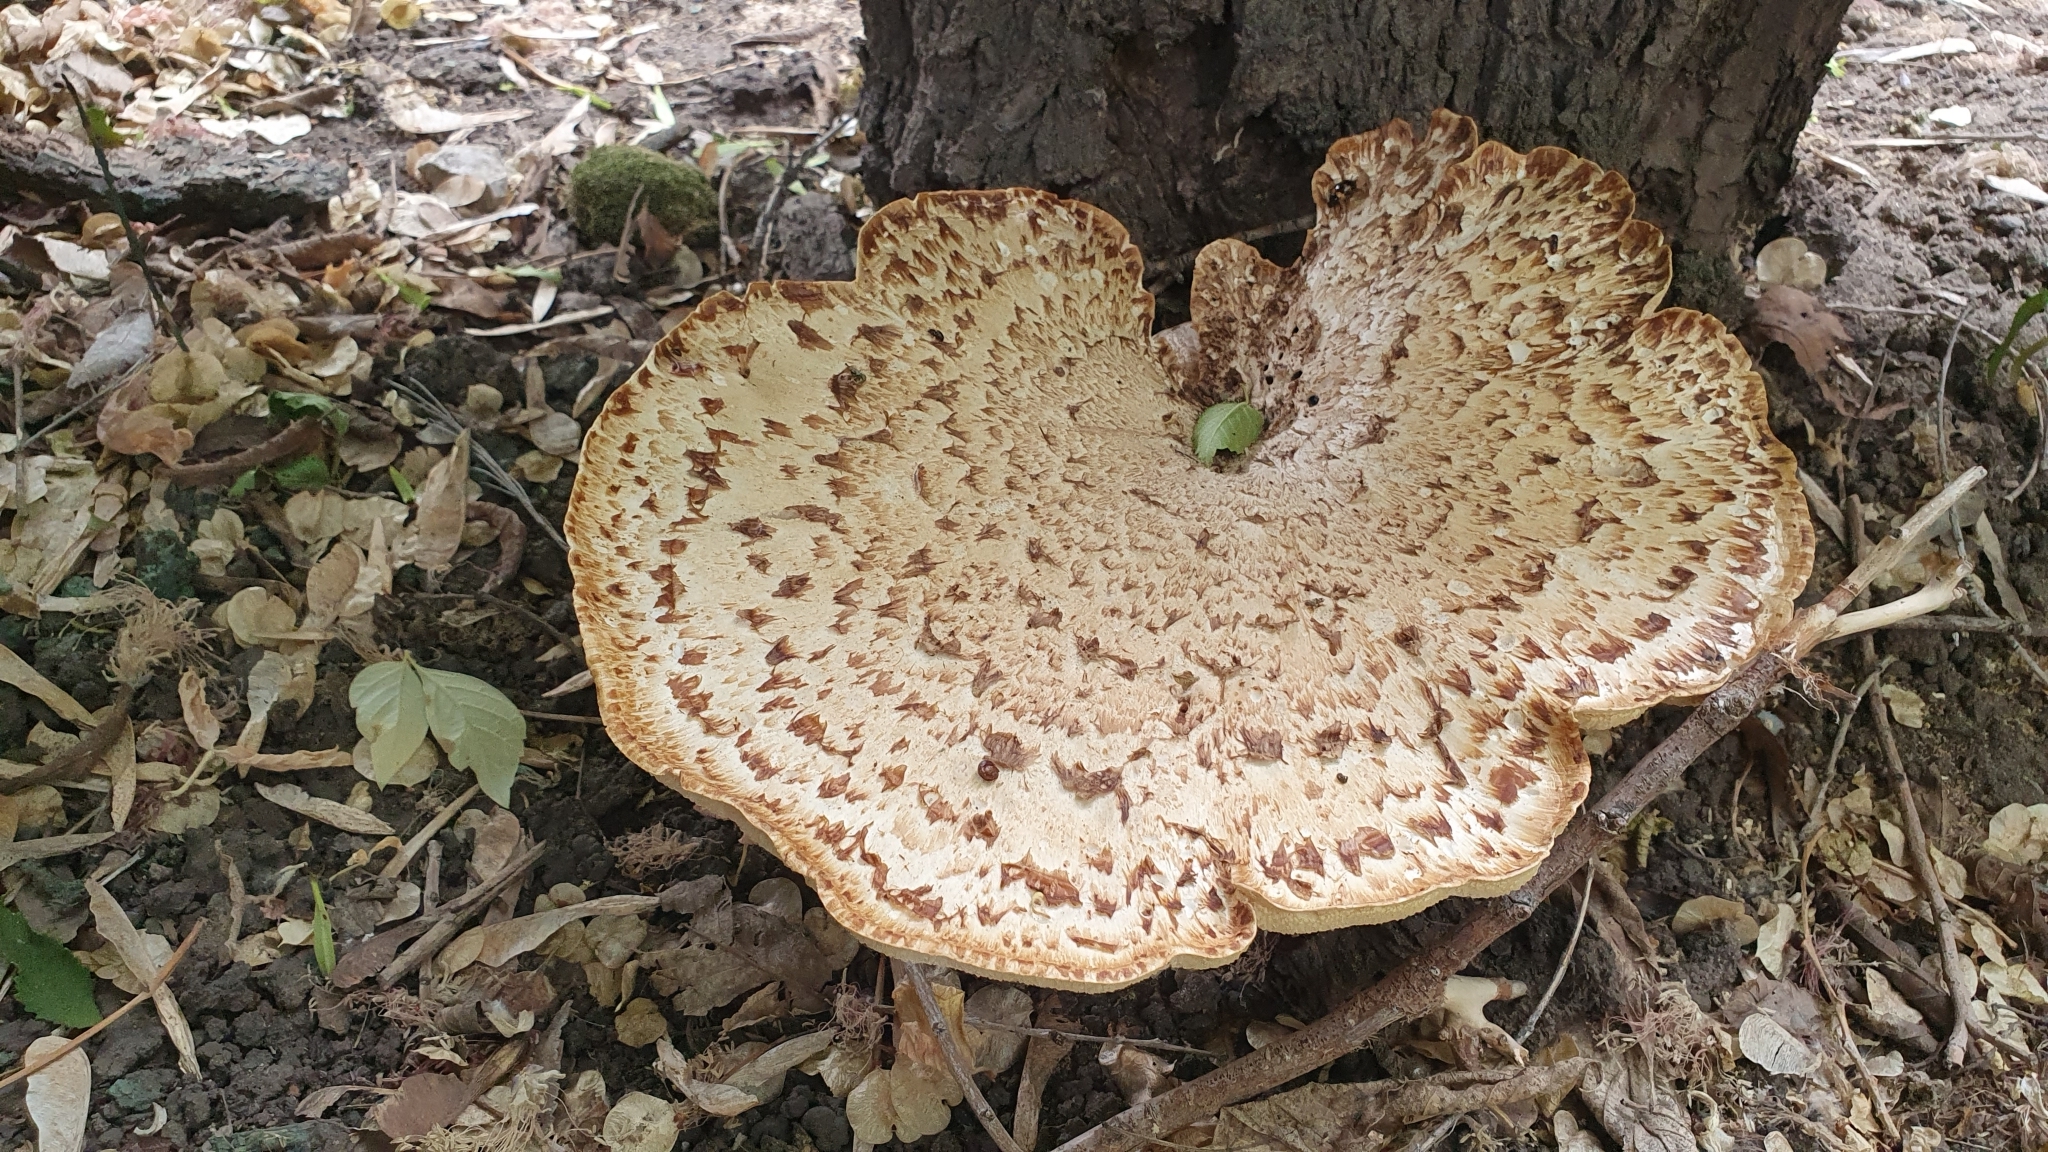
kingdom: Fungi
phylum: Basidiomycota
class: Agaricomycetes
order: Polyporales
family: Polyporaceae
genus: Cerioporus
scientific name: Cerioporus squamosus
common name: Dryad's saddle
